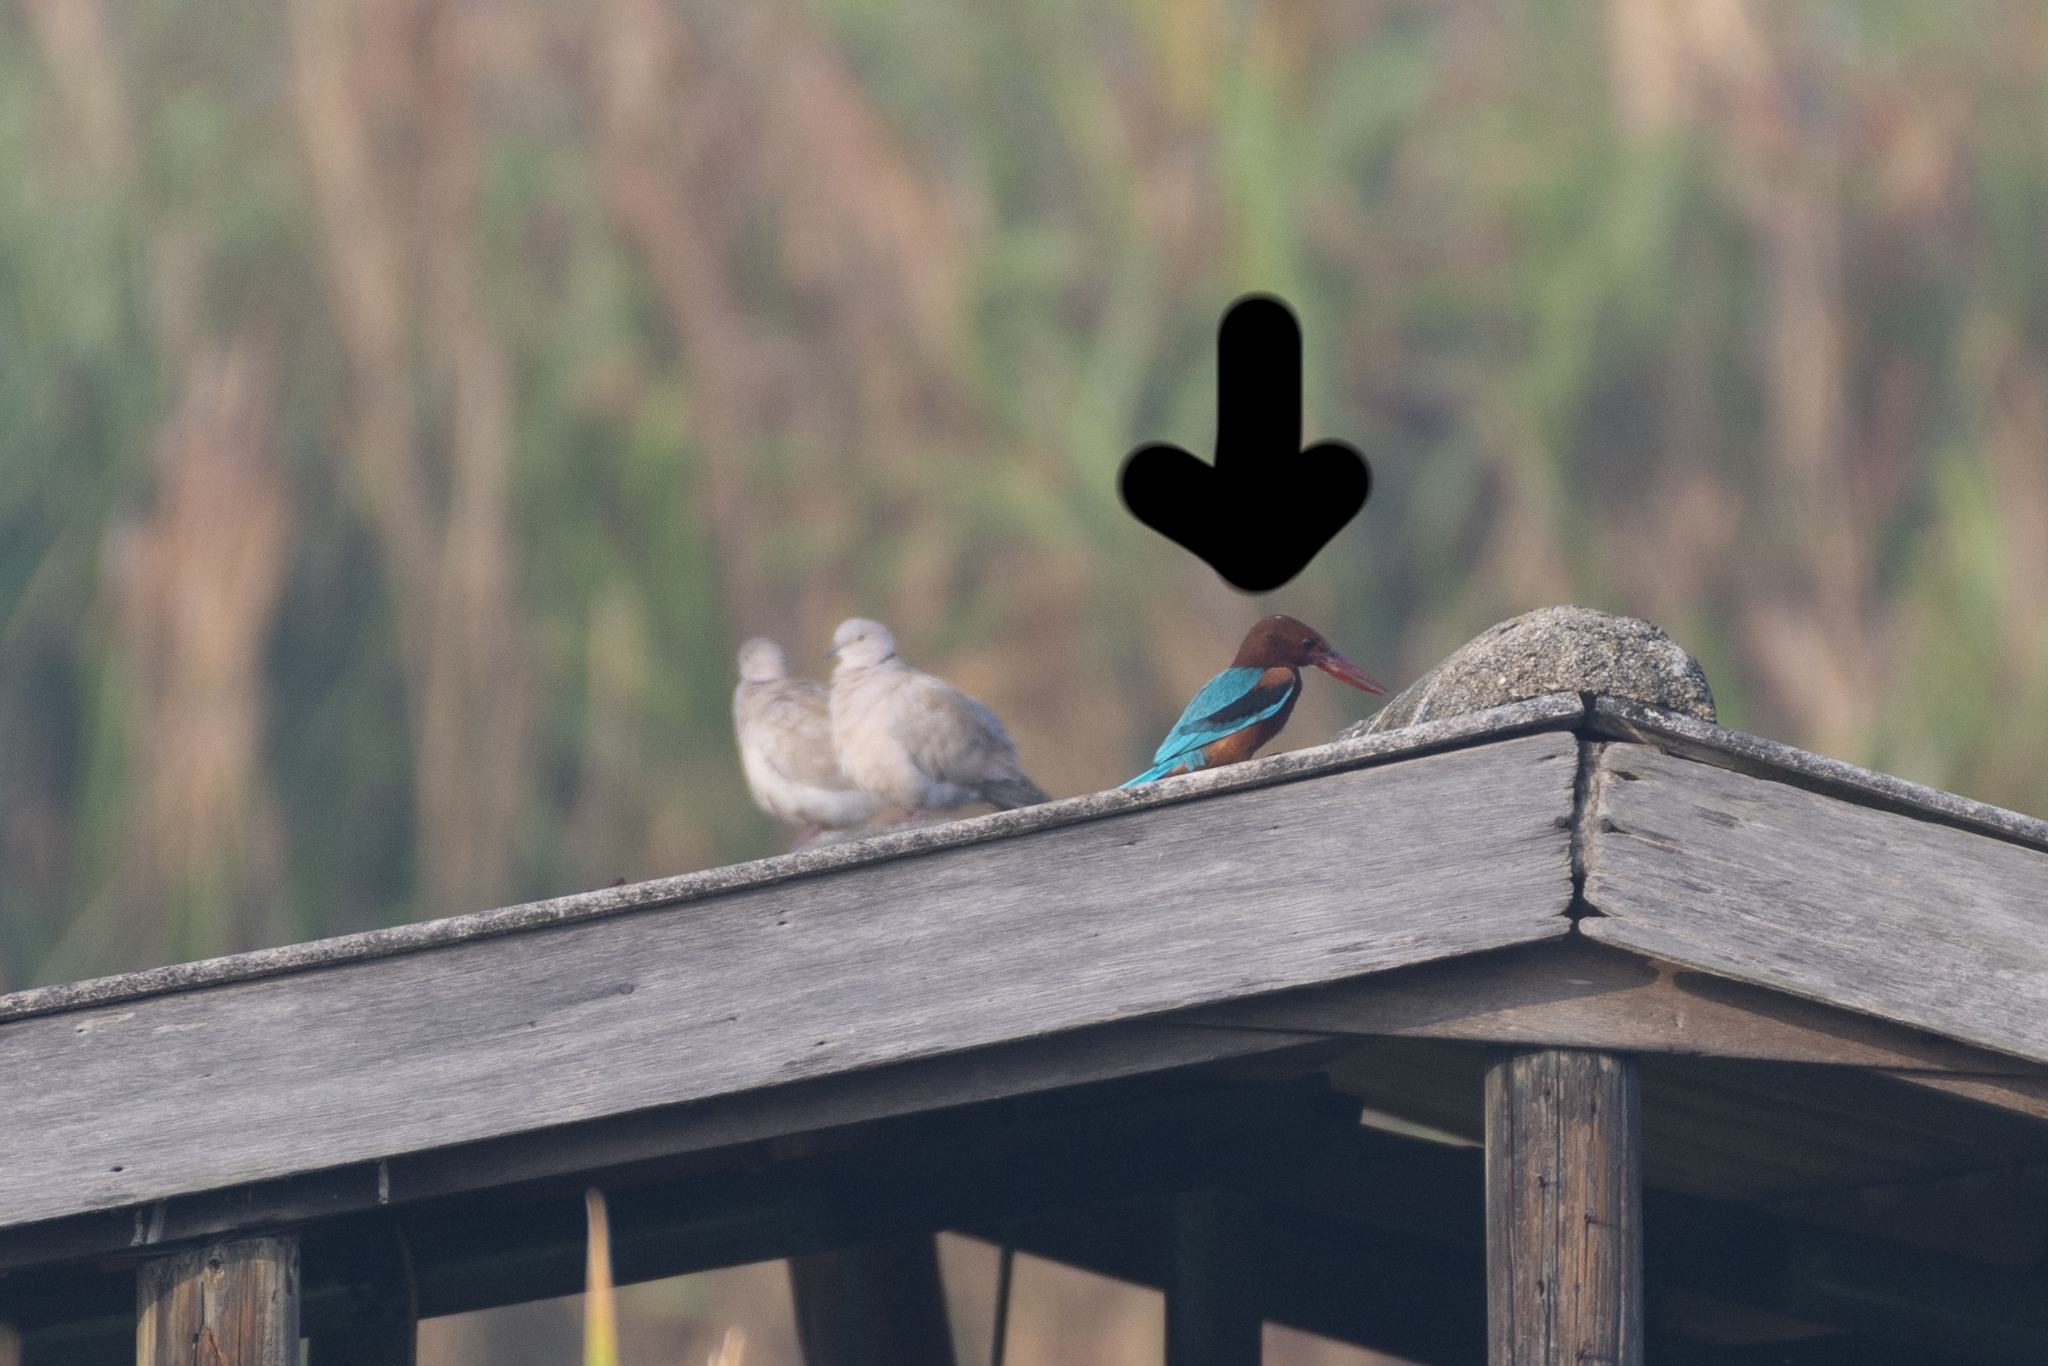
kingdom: Animalia
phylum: Chordata
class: Aves
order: Coraciiformes
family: Alcedinidae
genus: Halcyon
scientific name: Halcyon smyrnensis
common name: White-throated kingfisher
